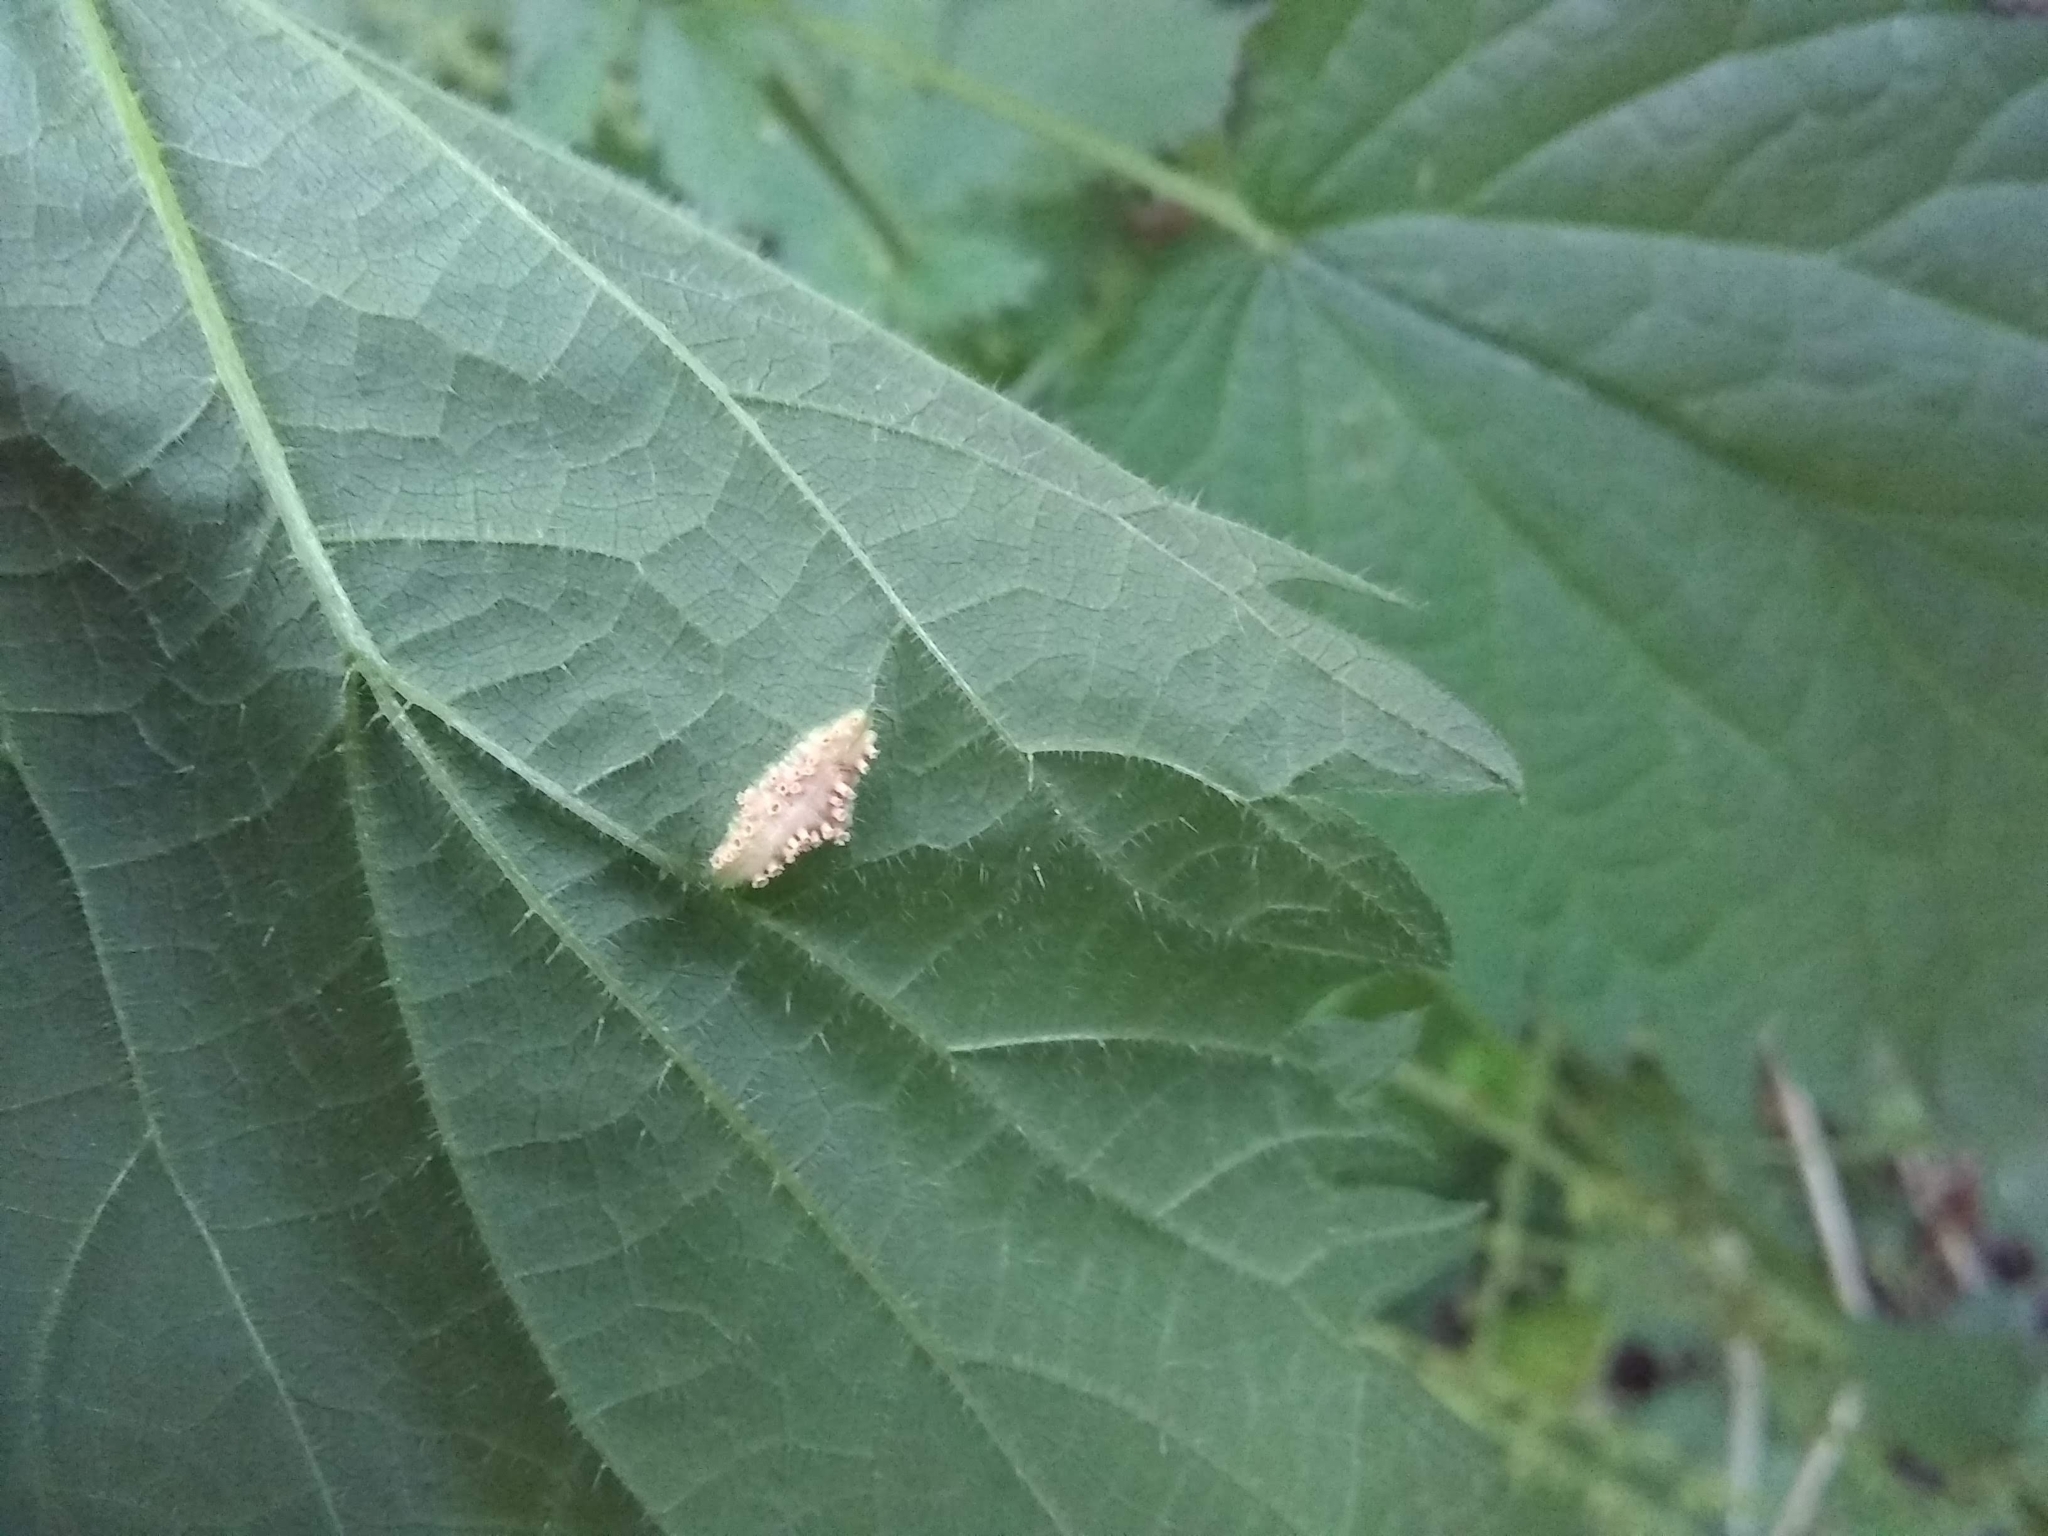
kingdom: Fungi
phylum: Basidiomycota
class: Pucciniomycetes
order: Pucciniales
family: Pucciniaceae
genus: Puccinia
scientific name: Puccinia urticata
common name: Nettle clustercup rust fungus
